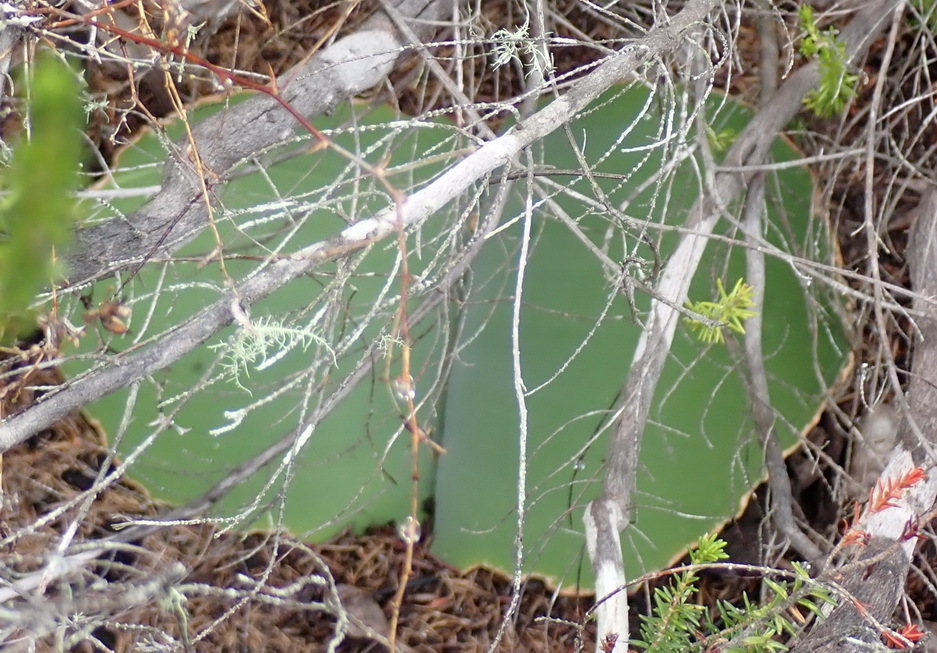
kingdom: Plantae
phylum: Tracheophyta
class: Liliopsida
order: Asparagales
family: Amaryllidaceae
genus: Haemanthus
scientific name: Haemanthus sanguineus
